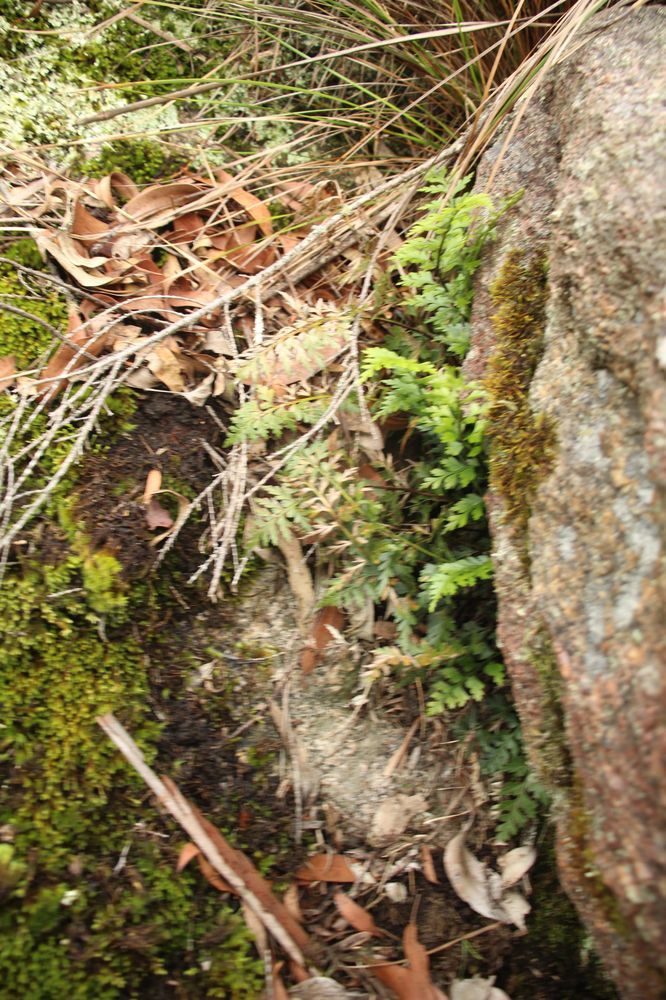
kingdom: Plantae
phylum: Tracheophyta
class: Polypodiopsida
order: Polypodiales
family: Aspleniaceae
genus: Asplenium
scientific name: Asplenium aethiopicum
